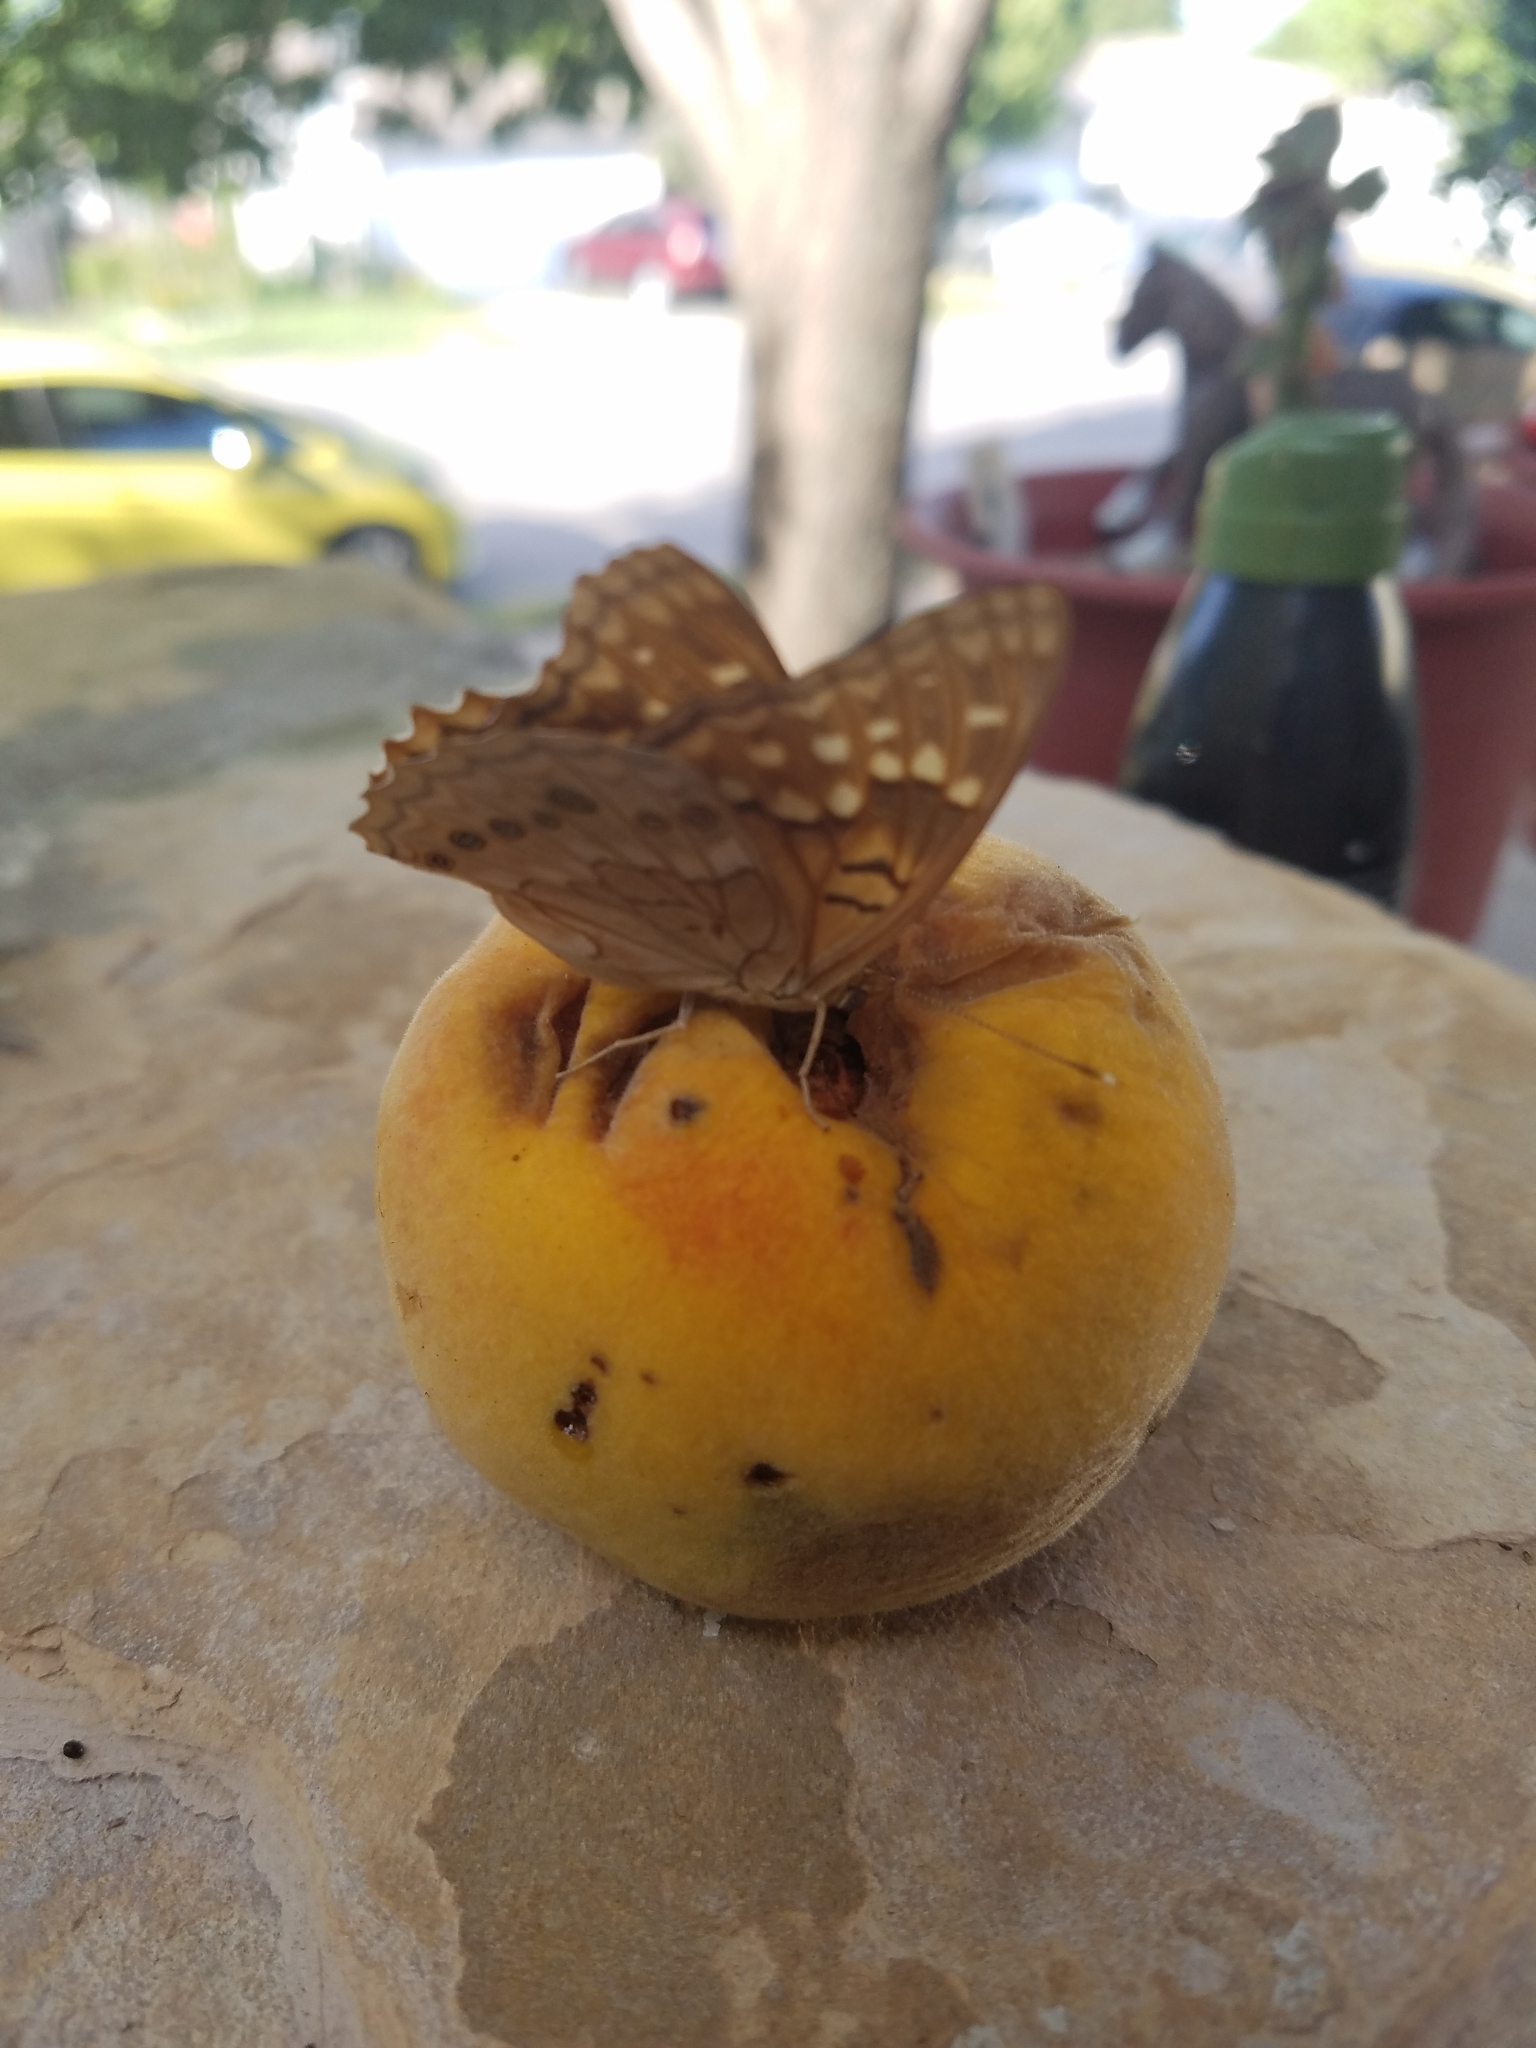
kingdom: Animalia
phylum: Arthropoda
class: Insecta
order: Lepidoptera
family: Nymphalidae
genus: Asterocampa
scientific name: Asterocampa clyton
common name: Tawny emperor
